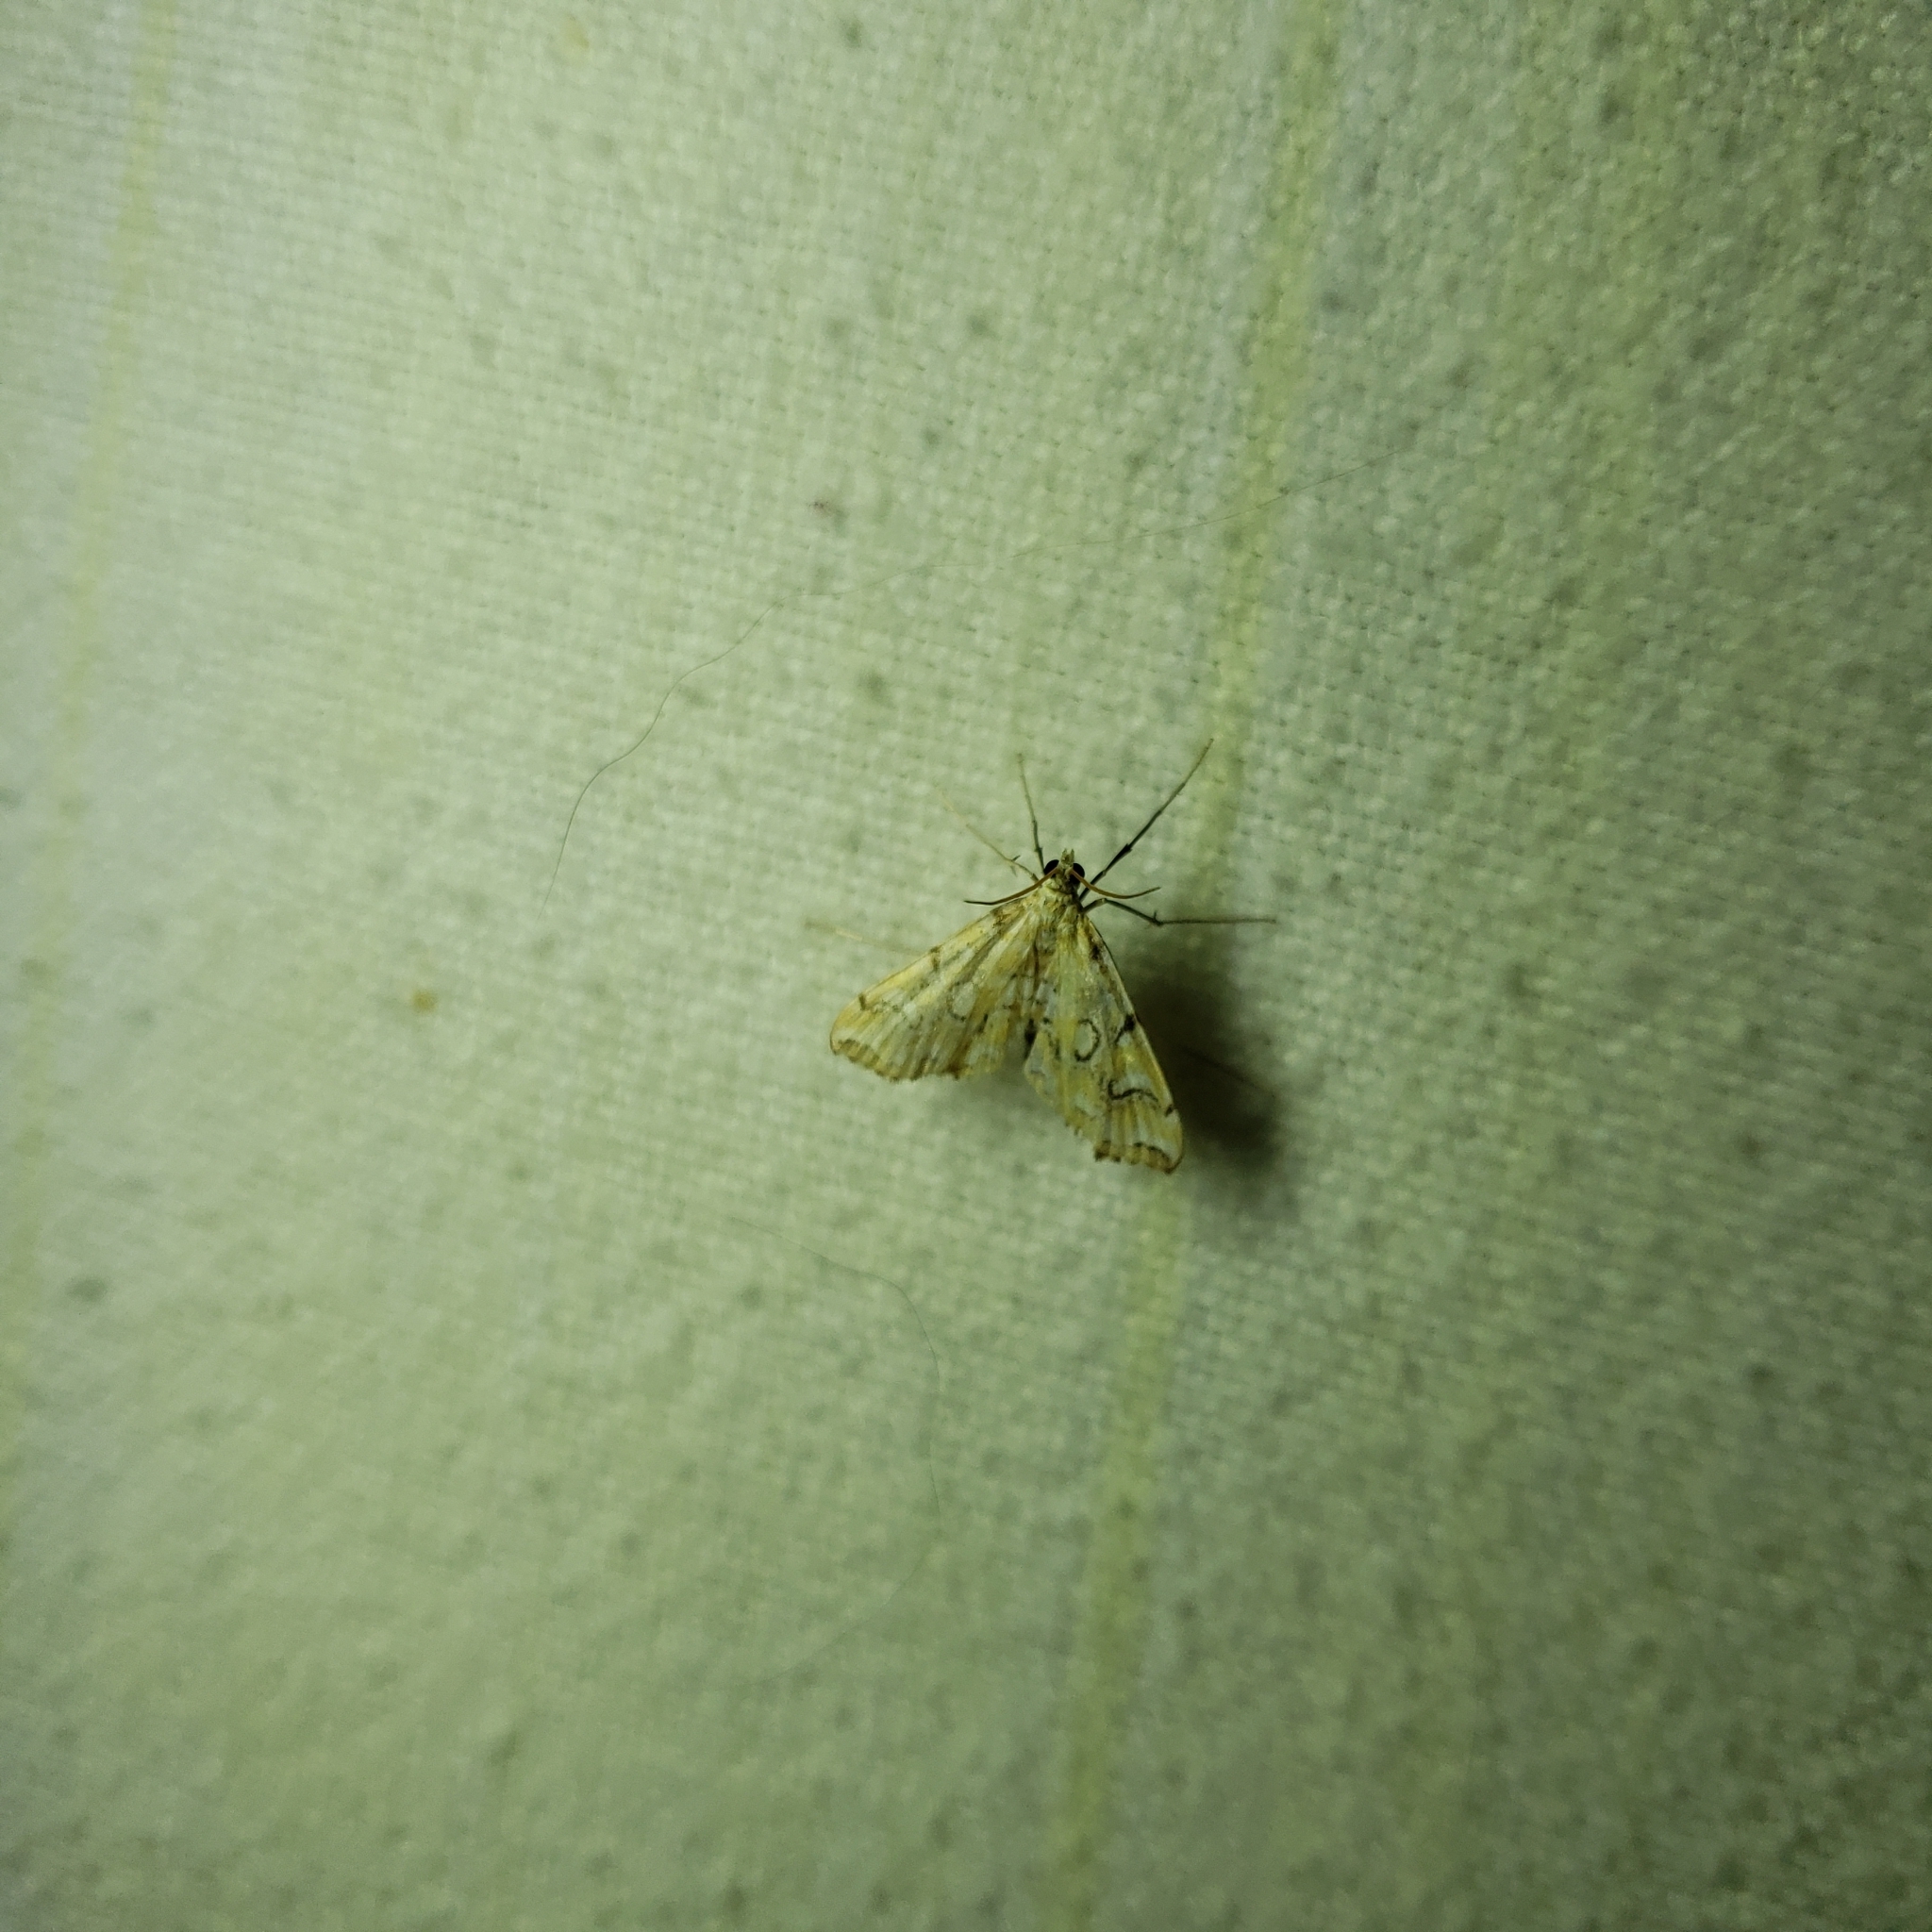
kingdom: Animalia
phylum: Arthropoda
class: Insecta
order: Lepidoptera
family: Crambidae
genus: Elophila
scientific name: Elophila icciusalis
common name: Pondside pyralid moth
